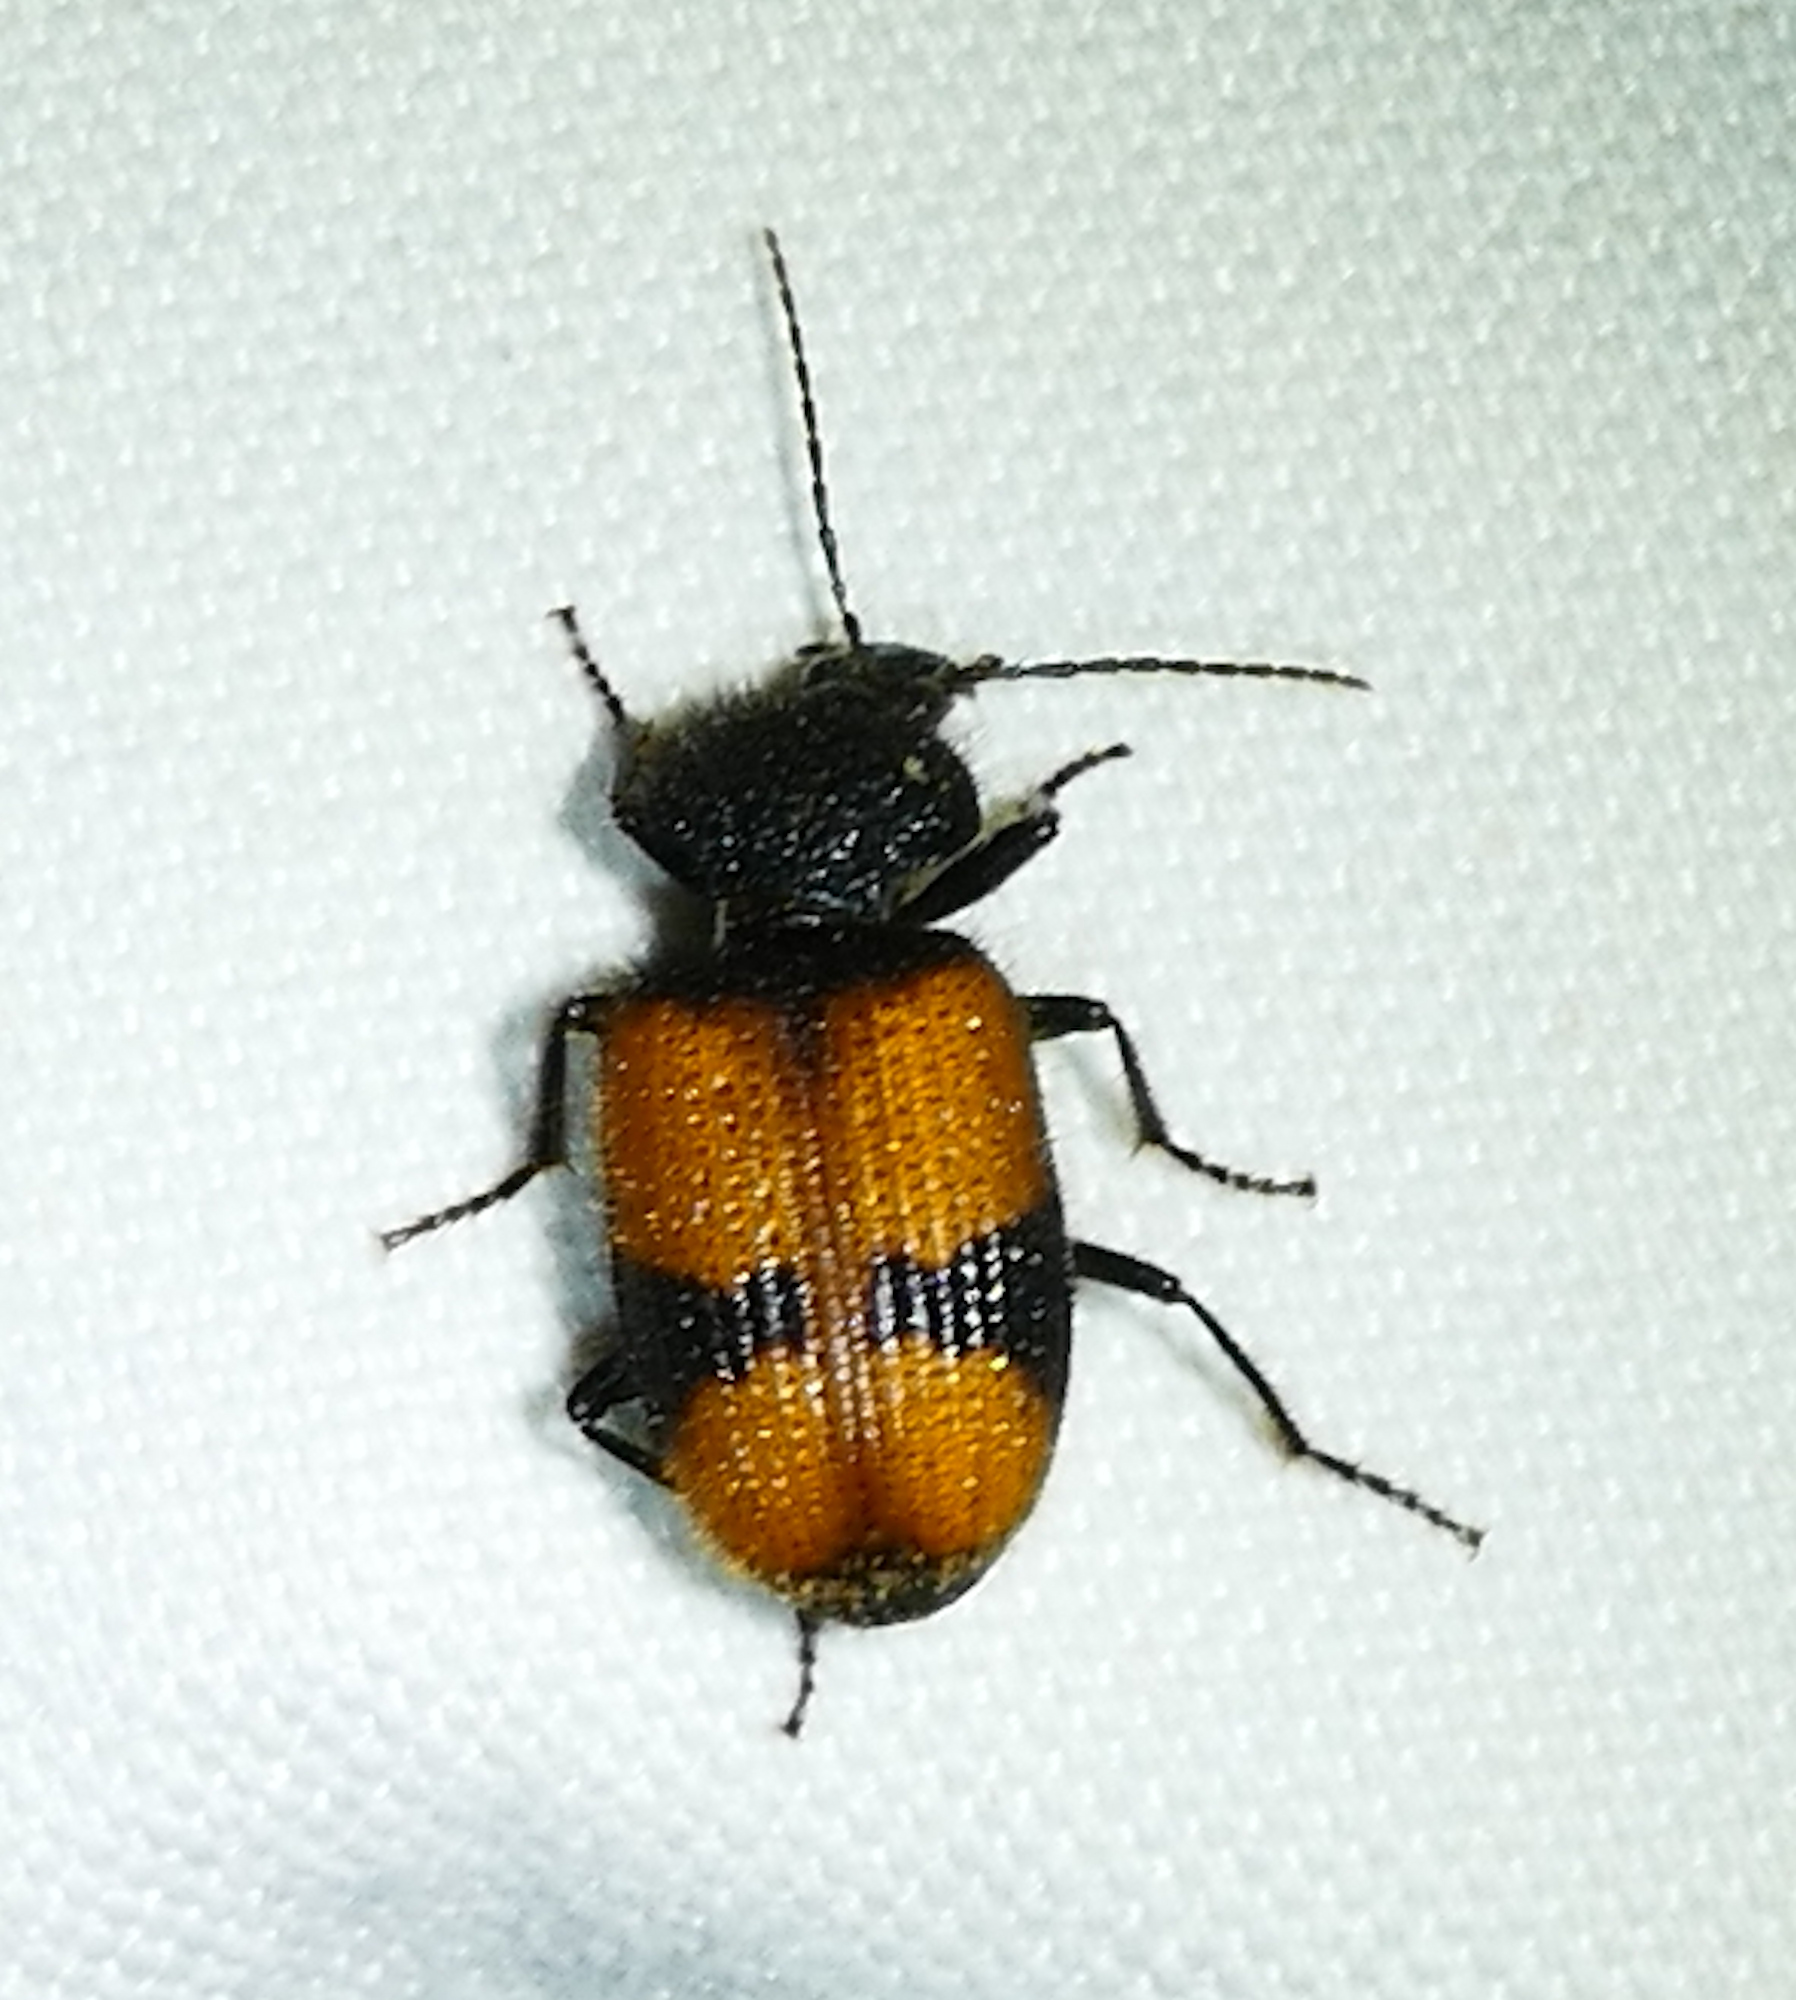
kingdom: Animalia
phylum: Arthropoda
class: Insecta
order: Coleoptera
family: Carabidae
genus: Panagaeus
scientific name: Panagaeus sallei
